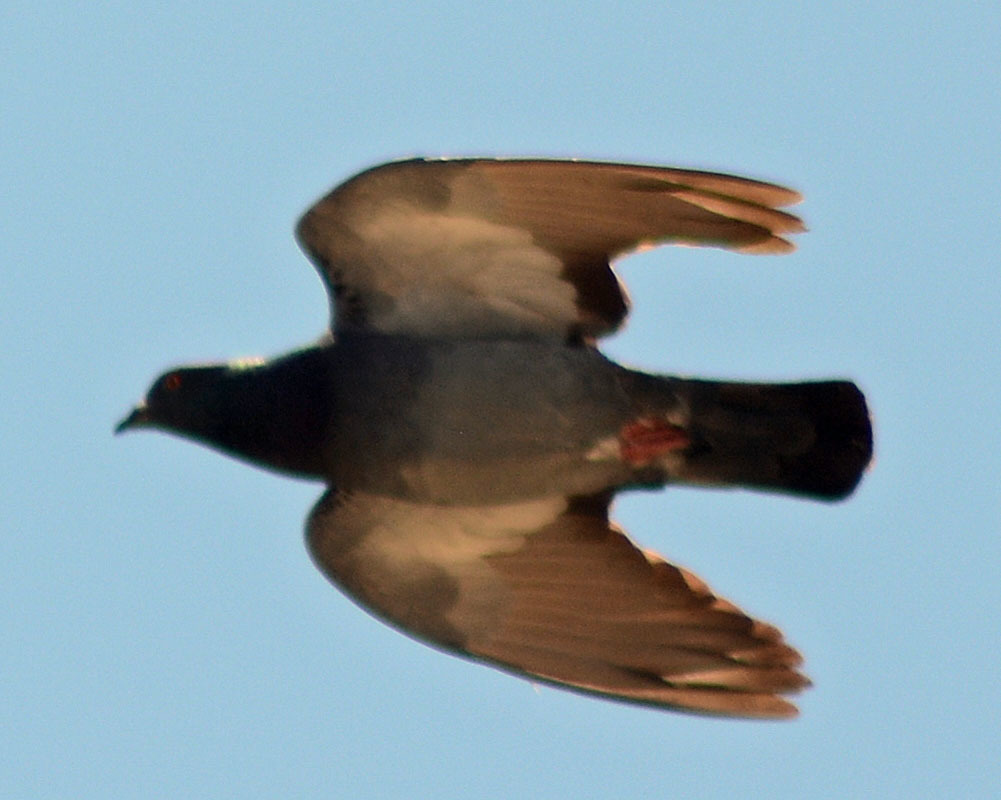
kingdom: Animalia
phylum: Chordata
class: Aves
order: Columbiformes
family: Columbidae
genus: Columba
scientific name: Columba livia
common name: Rock pigeon
